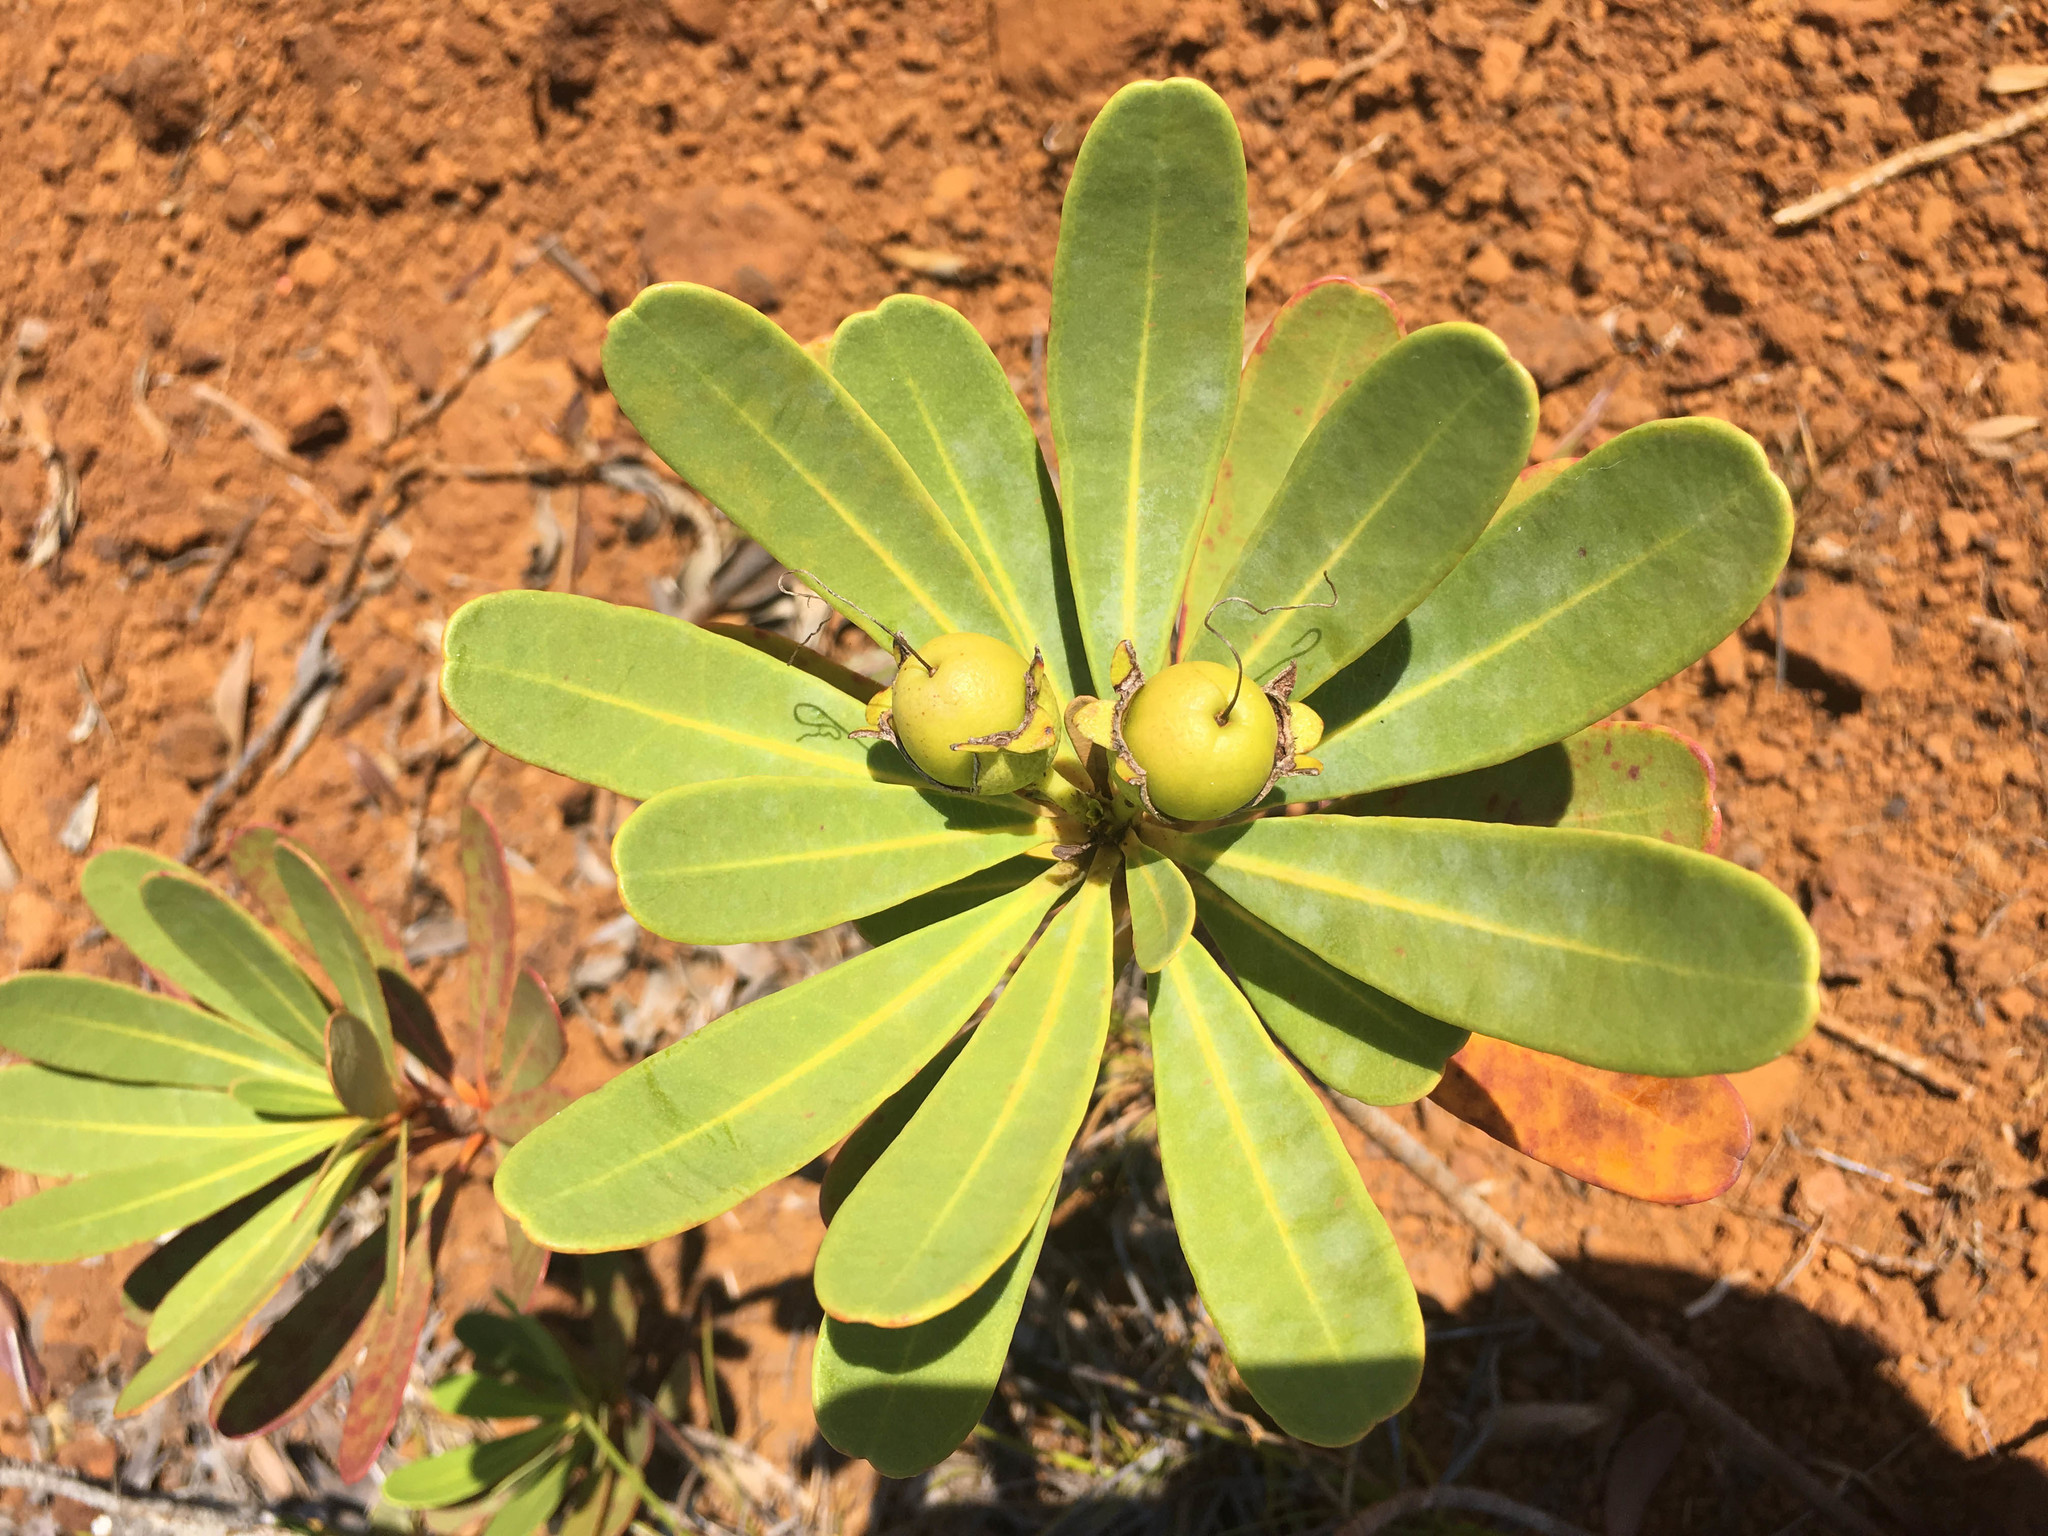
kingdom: Plantae
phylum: Tracheophyta
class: Magnoliopsida
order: Myrtales
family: Myrtaceae
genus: Xanthostemon
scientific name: Xanthostemon aurantiacus
